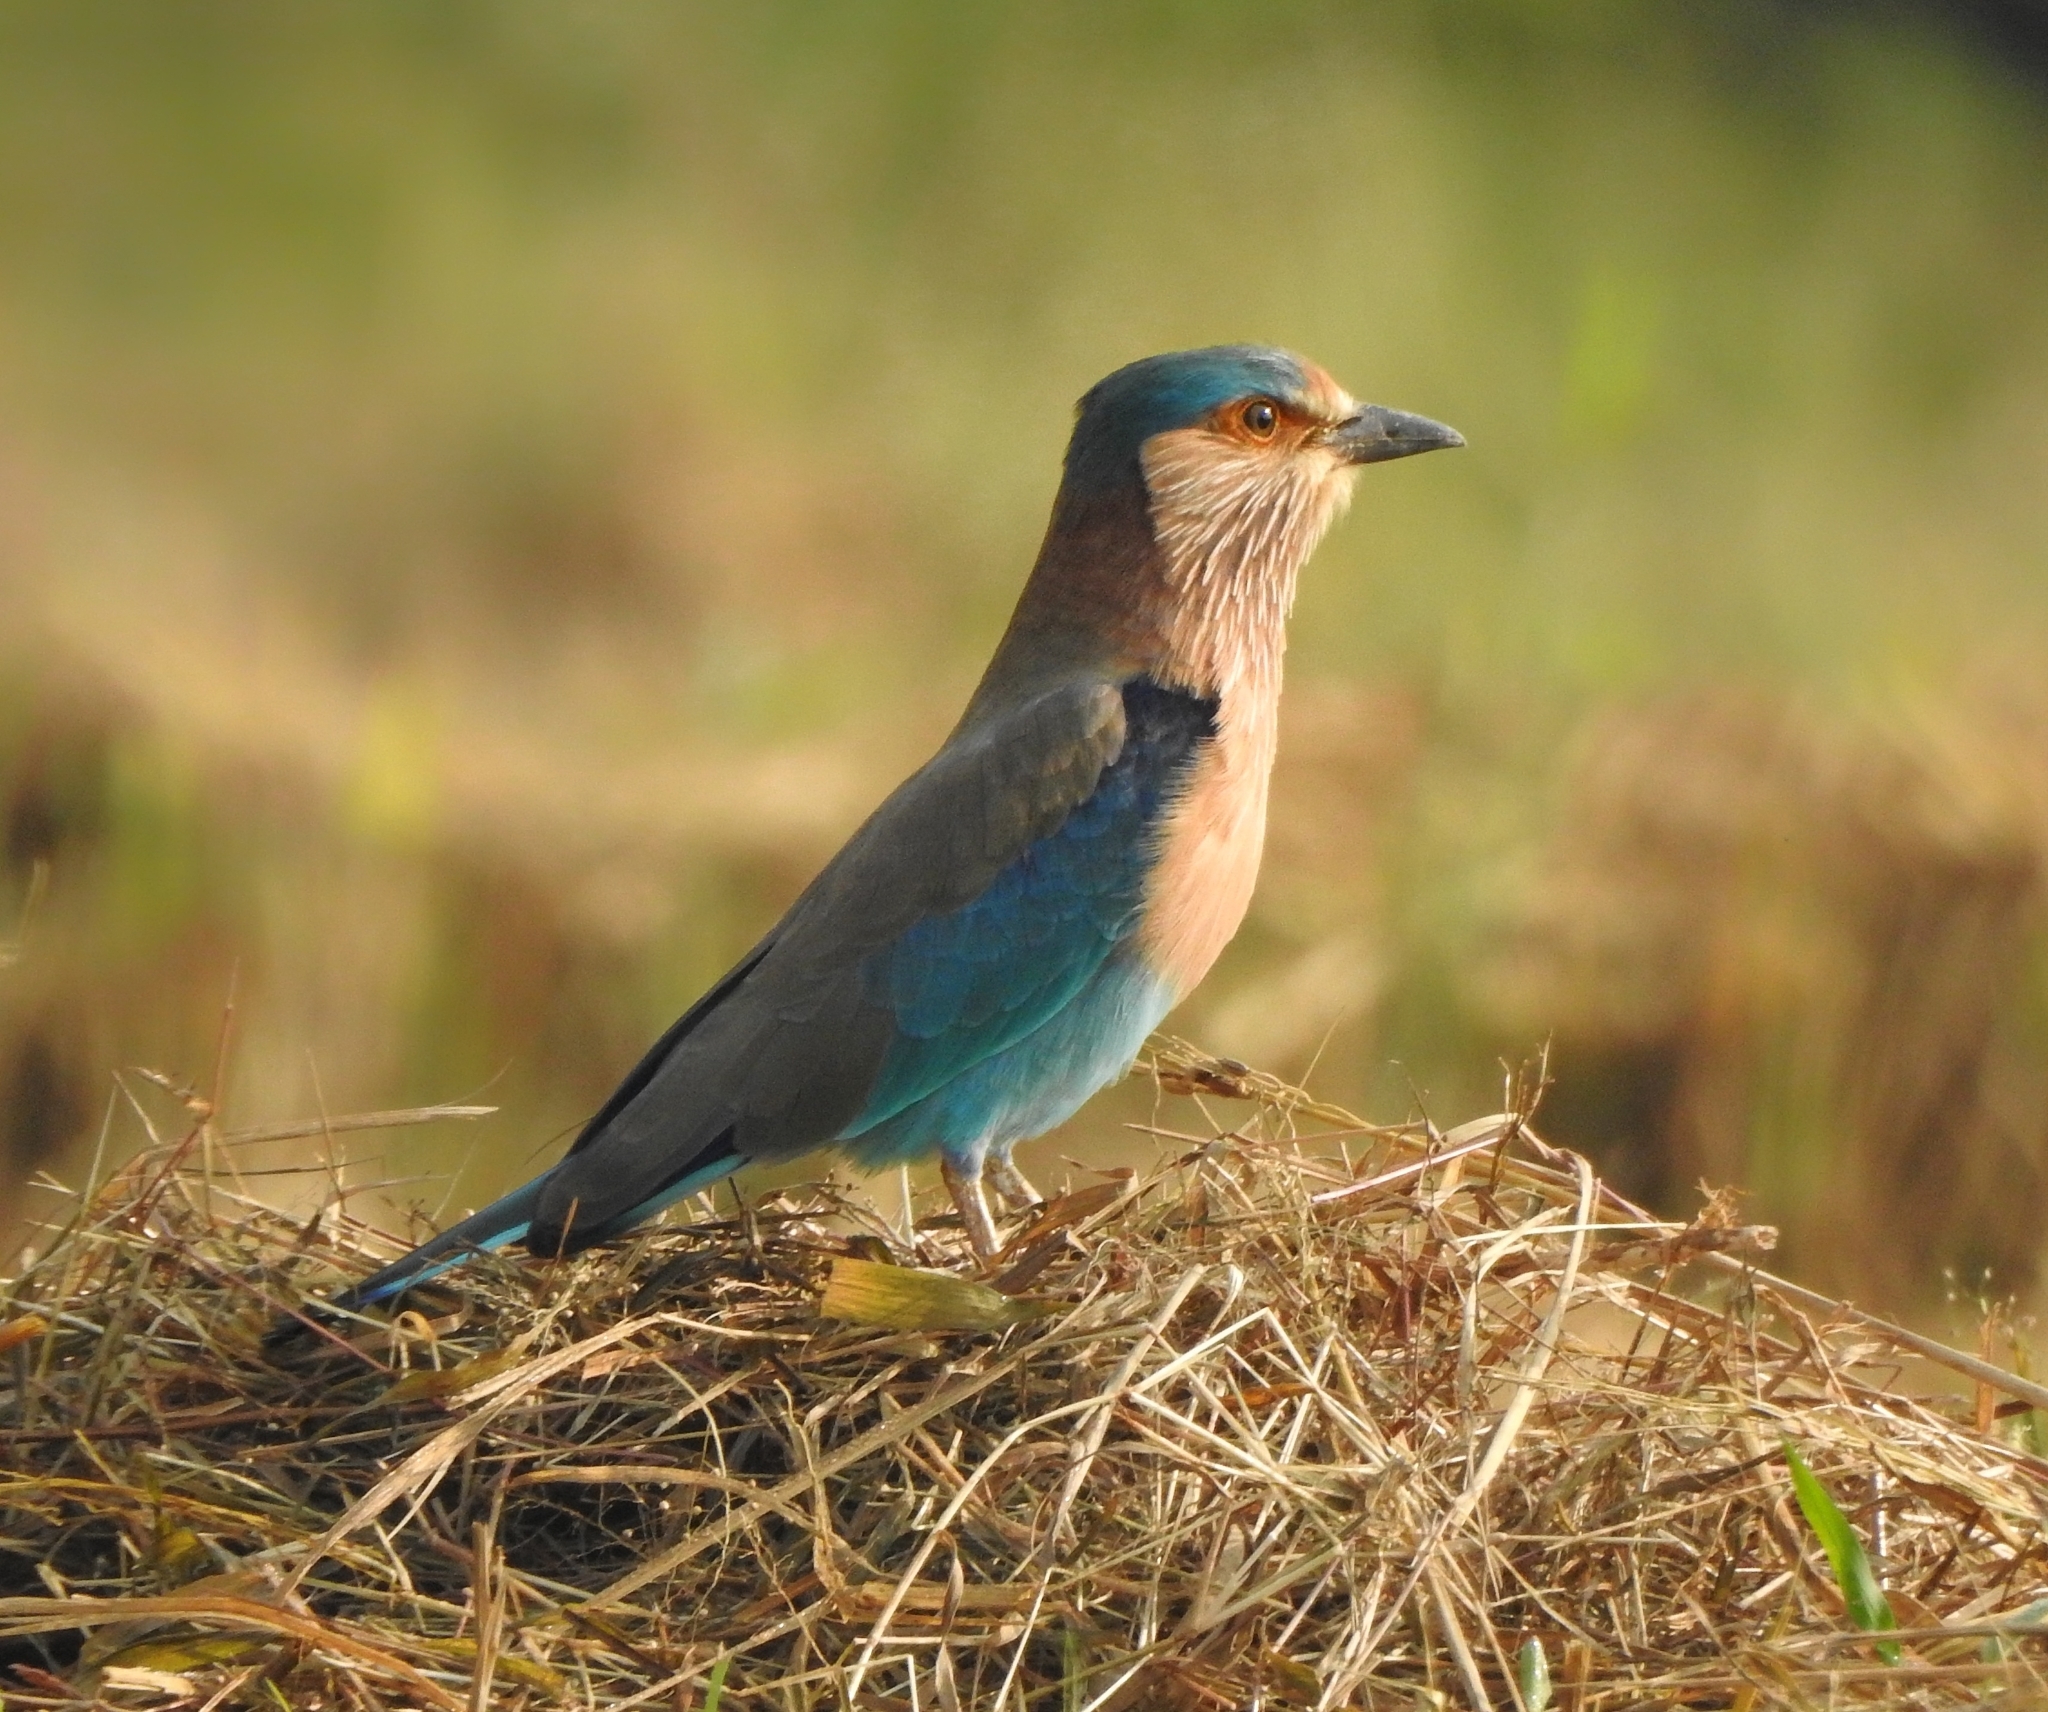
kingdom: Animalia
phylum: Chordata
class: Aves
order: Coraciiformes
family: Coraciidae
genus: Coracias
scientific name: Coracias benghalensis
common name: Indian roller
